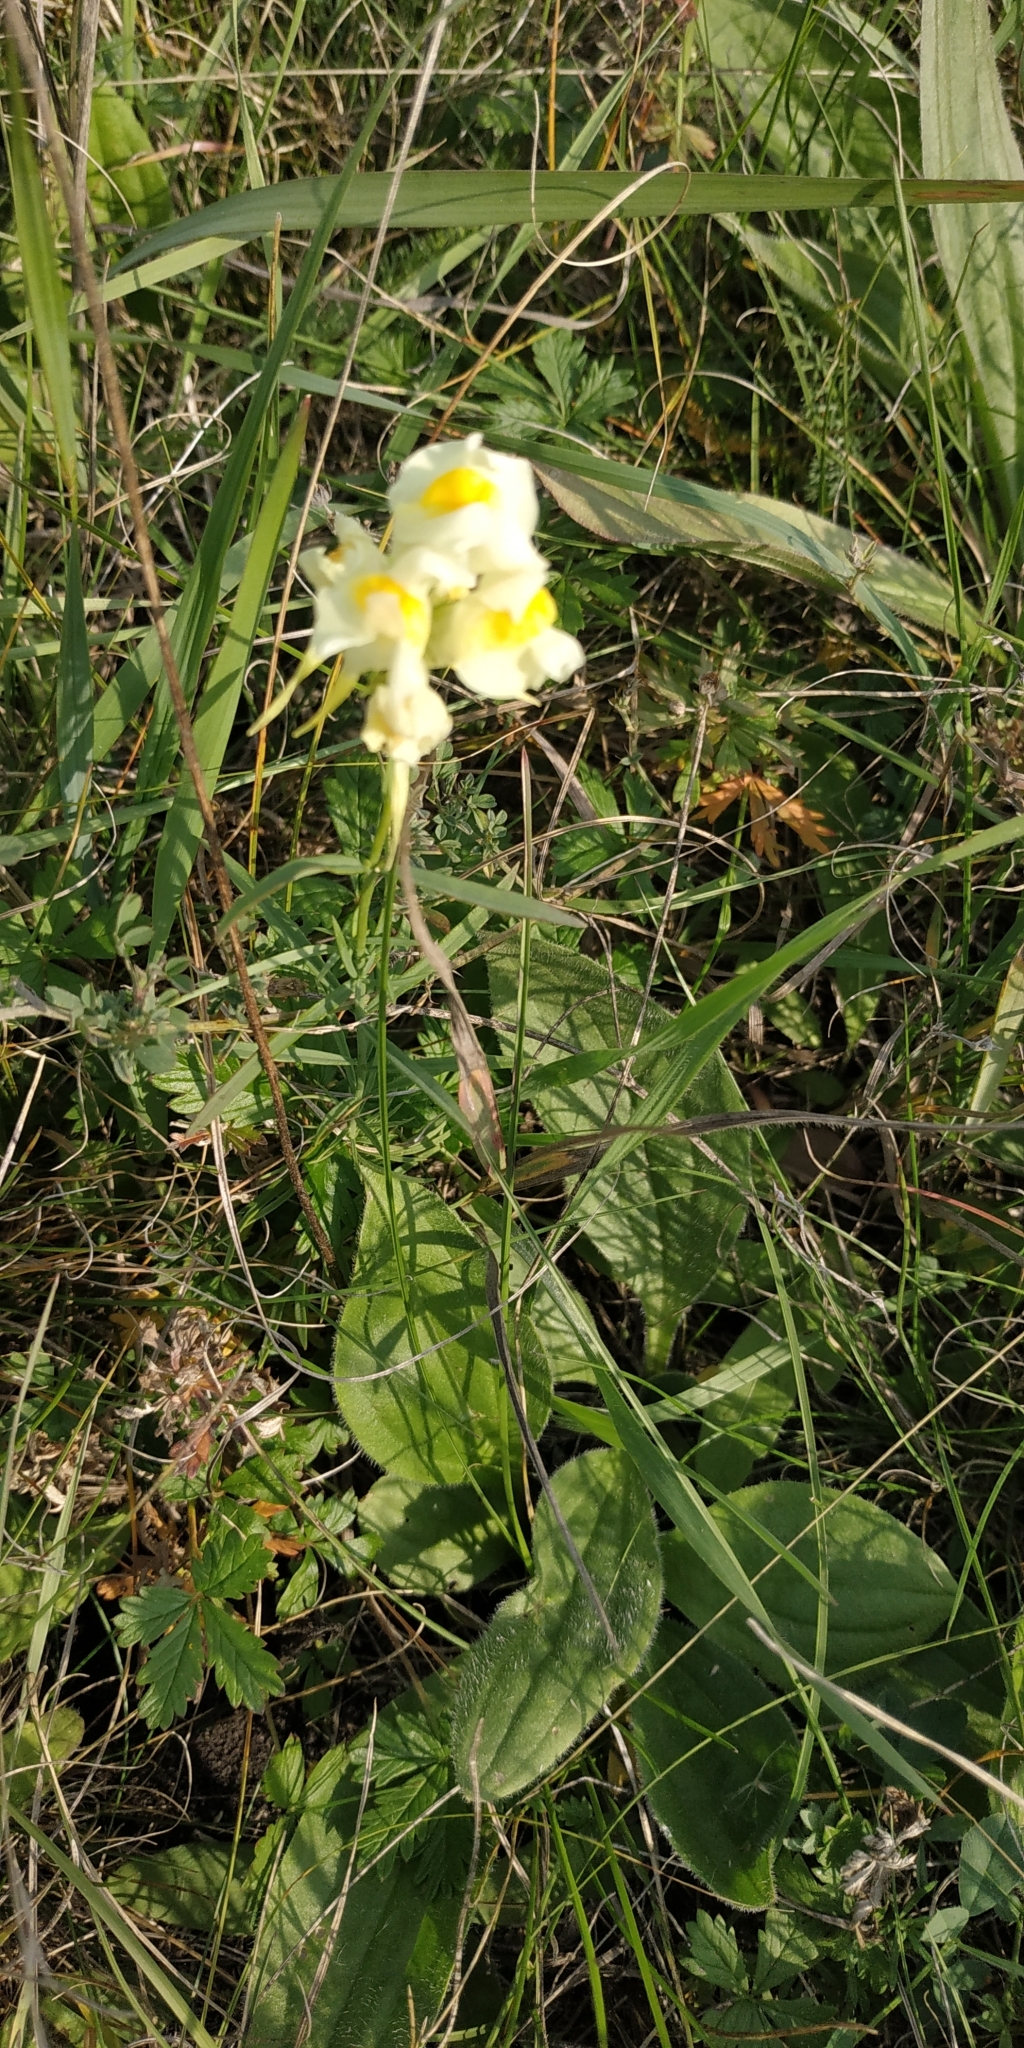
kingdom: Plantae
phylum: Tracheophyta
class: Magnoliopsida
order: Lamiales
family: Plantaginaceae
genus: Linaria
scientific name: Linaria vulgaris
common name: Butter and eggs
